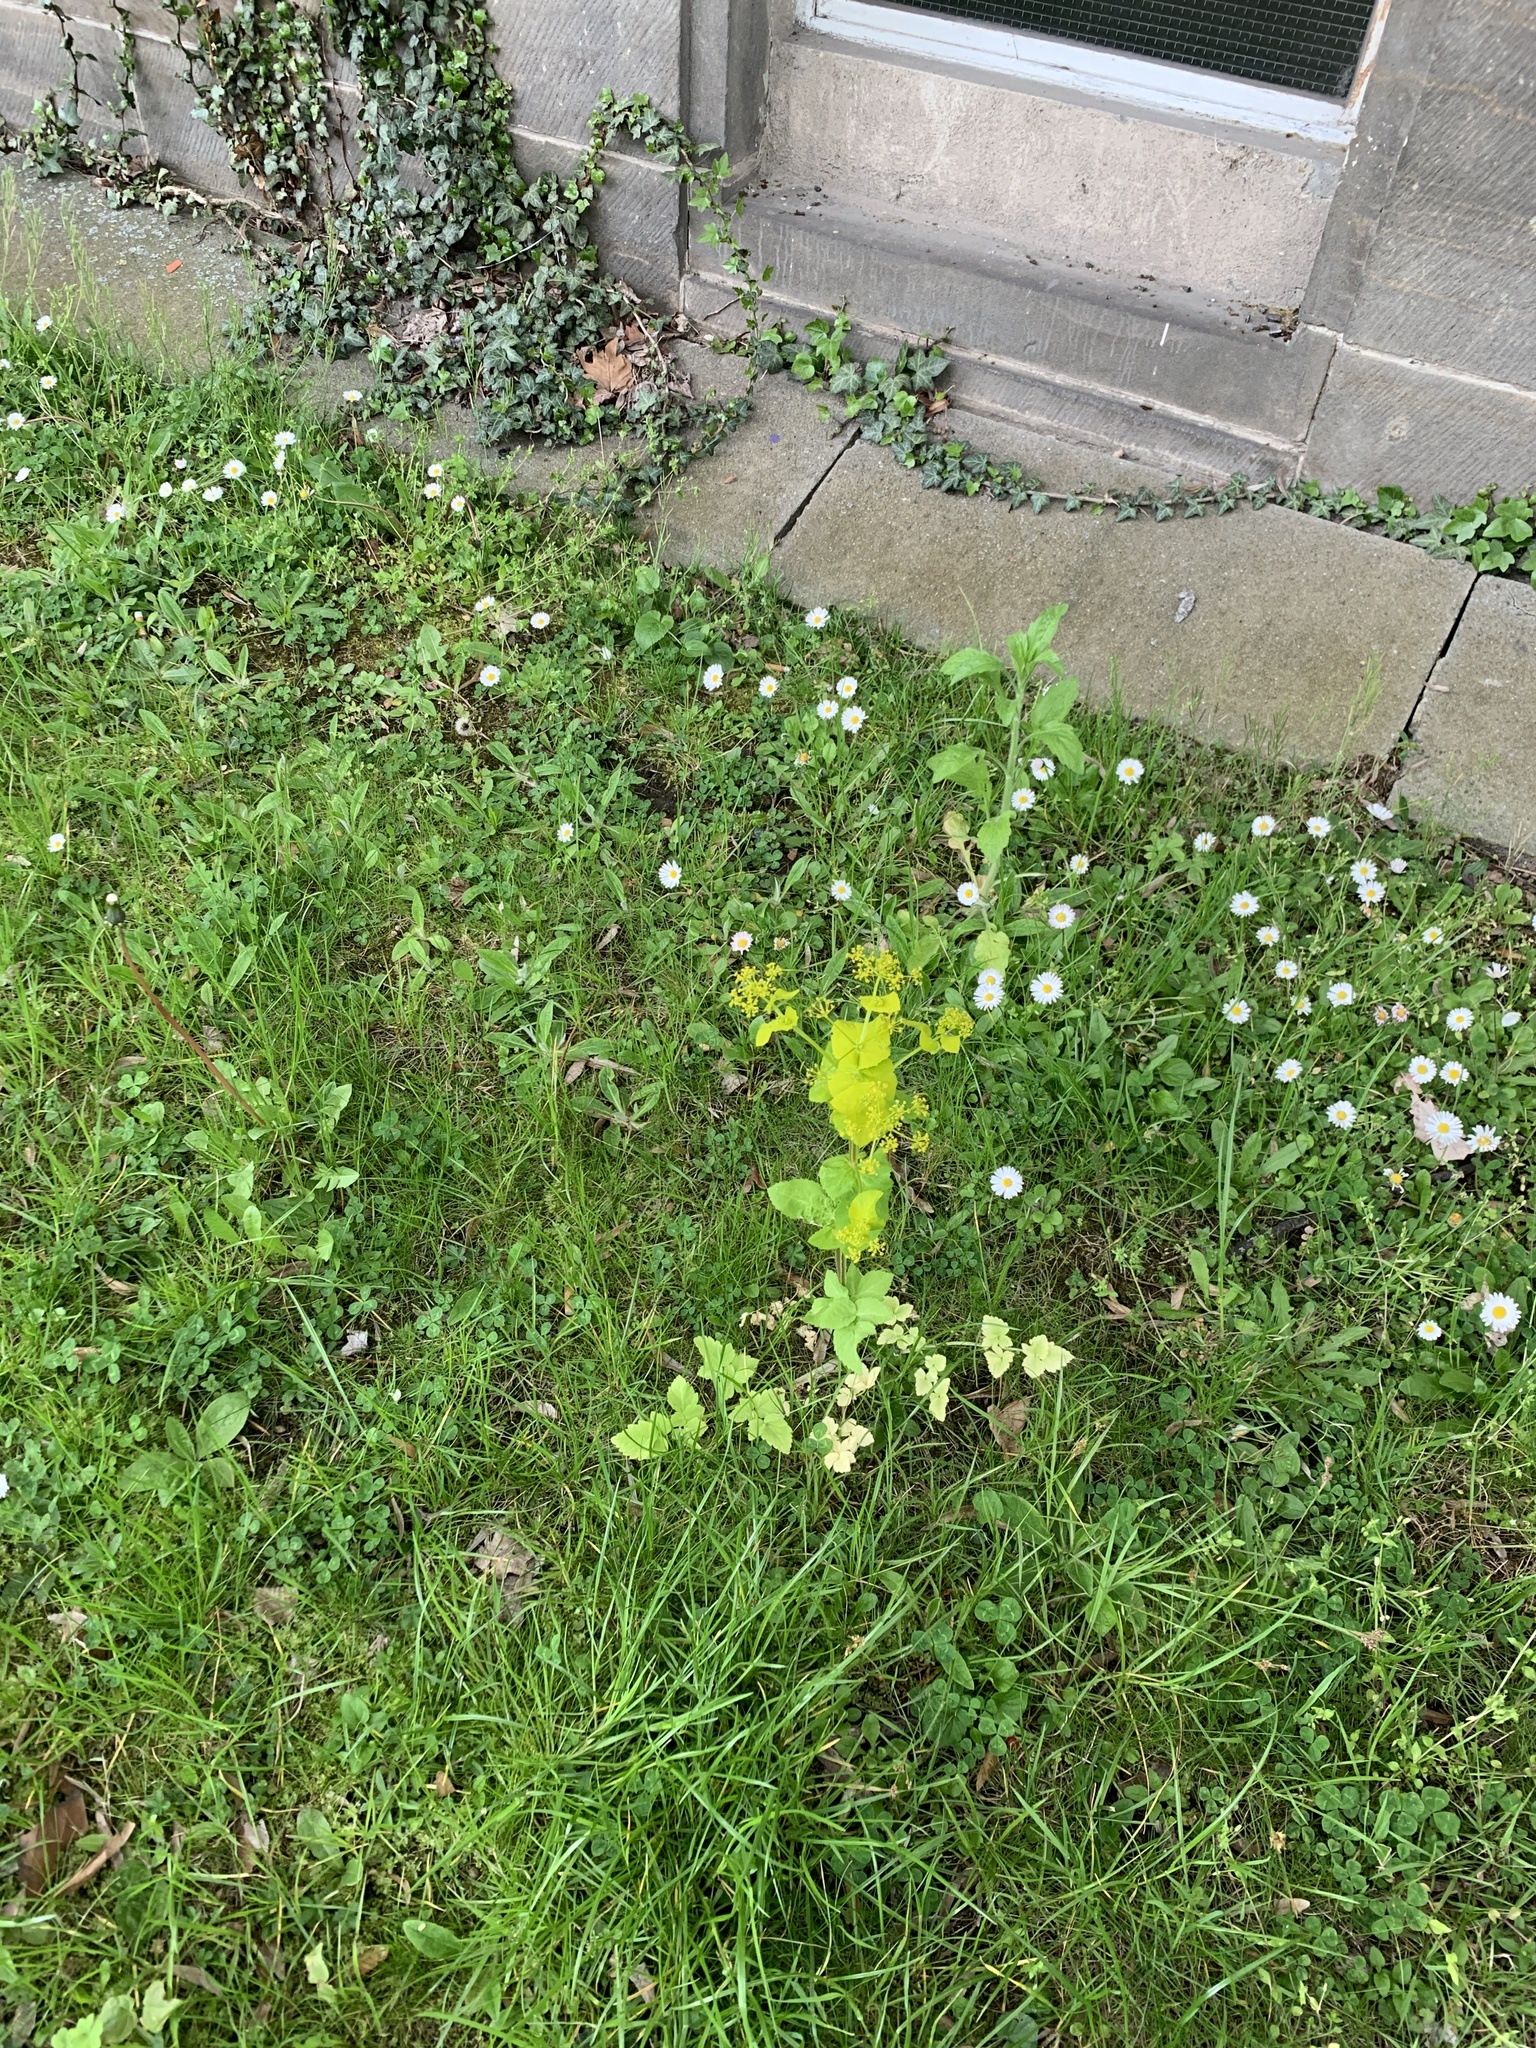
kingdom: Plantae
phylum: Tracheophyta
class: Magnoliopsida
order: Apiales
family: Apiaceae
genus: Smyrnium
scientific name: Smyrnium perfoliatum
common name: Perfoliate alexanders
